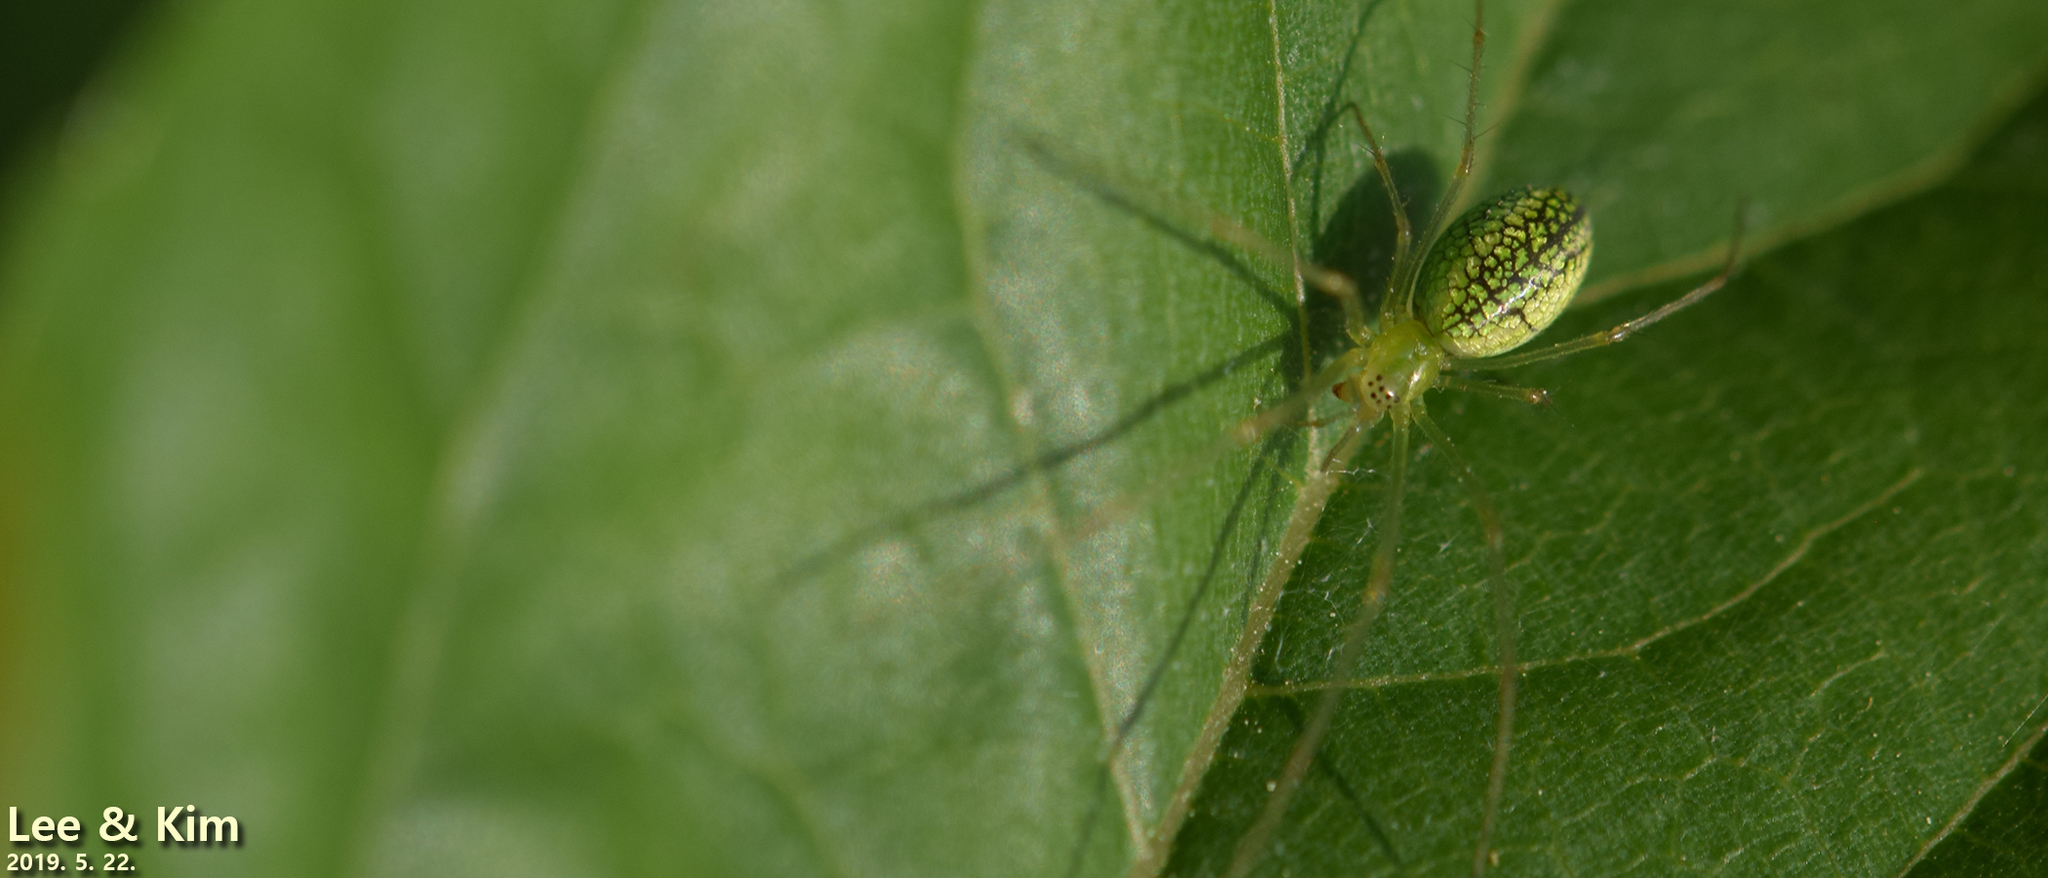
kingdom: Animalia
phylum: Arthropoda
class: Arachnida
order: Araneae
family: Tetragnathidae
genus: Tetragnatha
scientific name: Tetragnatha yesoensis
